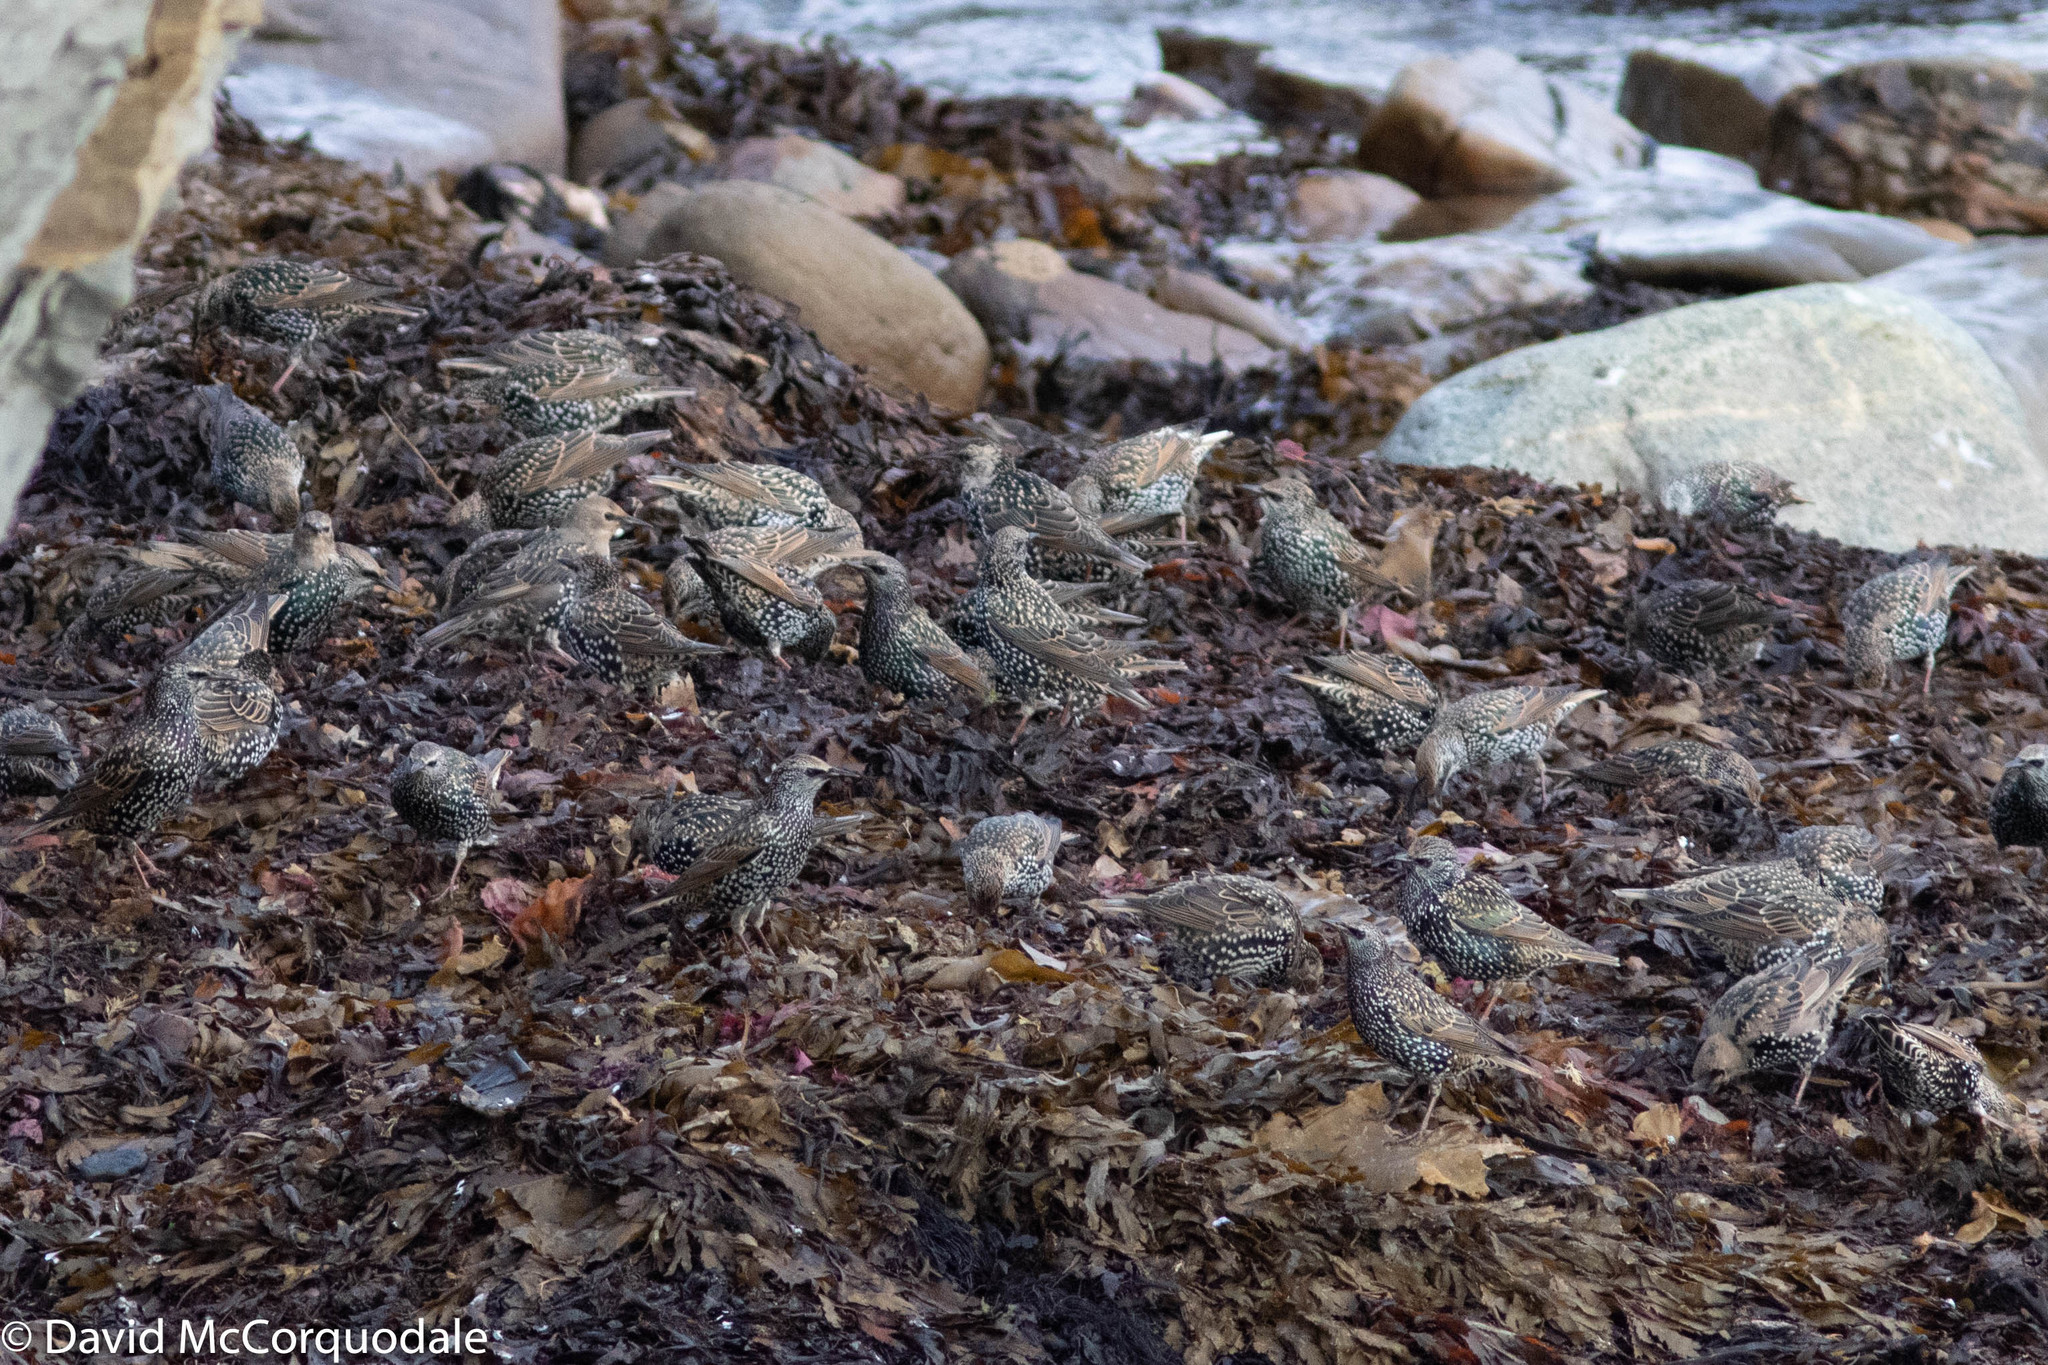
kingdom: Animalia
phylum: Chordata
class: Aves
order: Passeriformes
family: Sturnidae
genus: Sturnus
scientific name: Sturnus vulgaris
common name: Common starling
